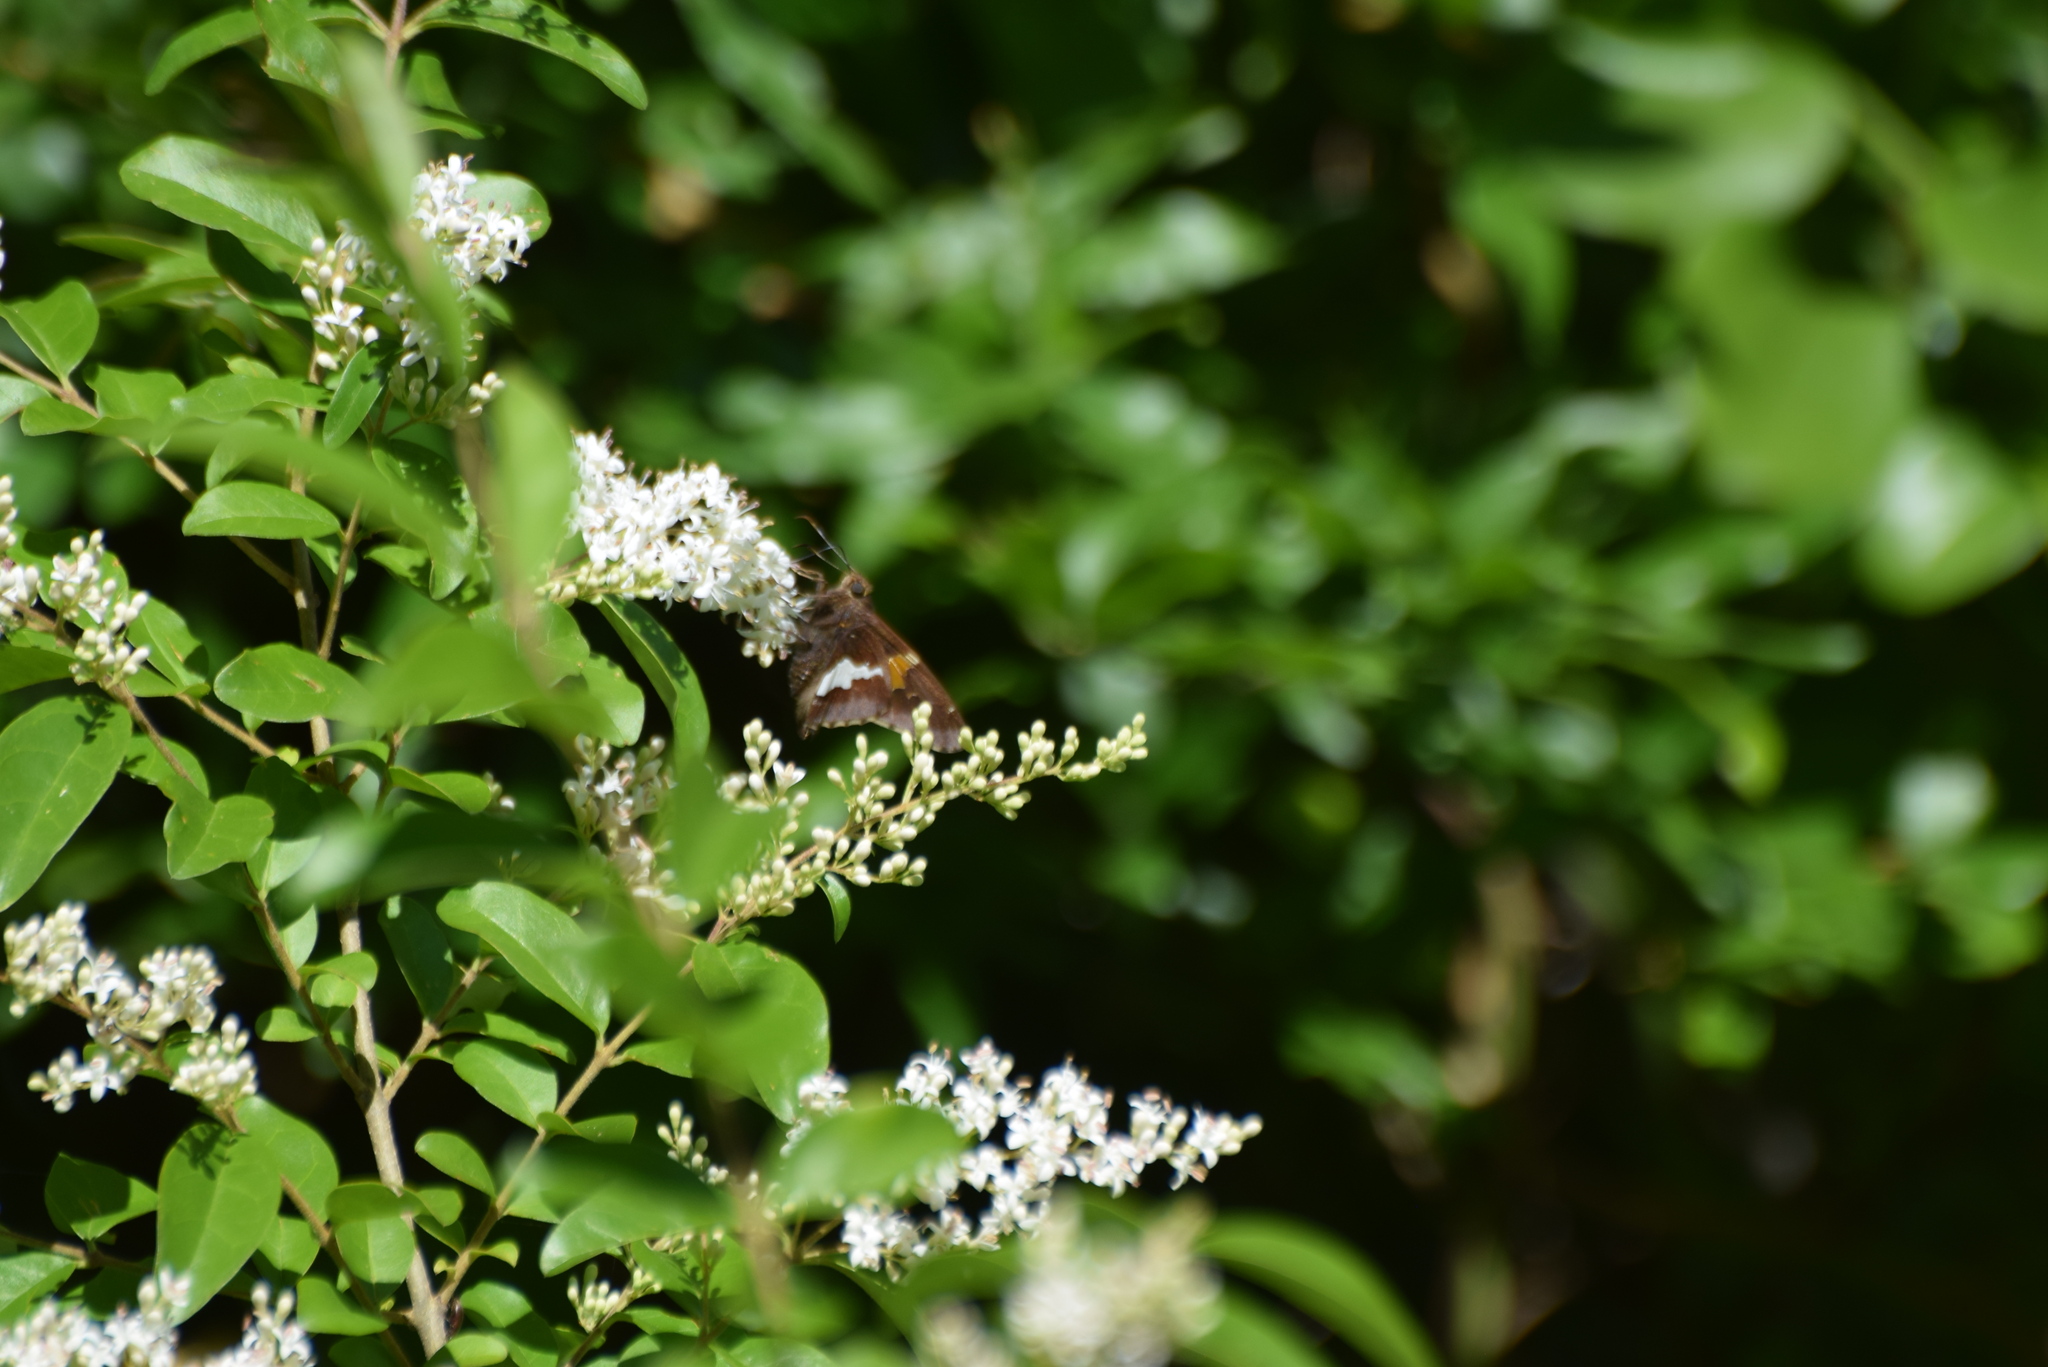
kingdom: Animalia
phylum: Arthropoda
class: Insecta
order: Lepidoptera
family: Hesperiidae
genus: Epargyreus
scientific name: Epargyreus clarus
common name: Silver-spotted skipper
